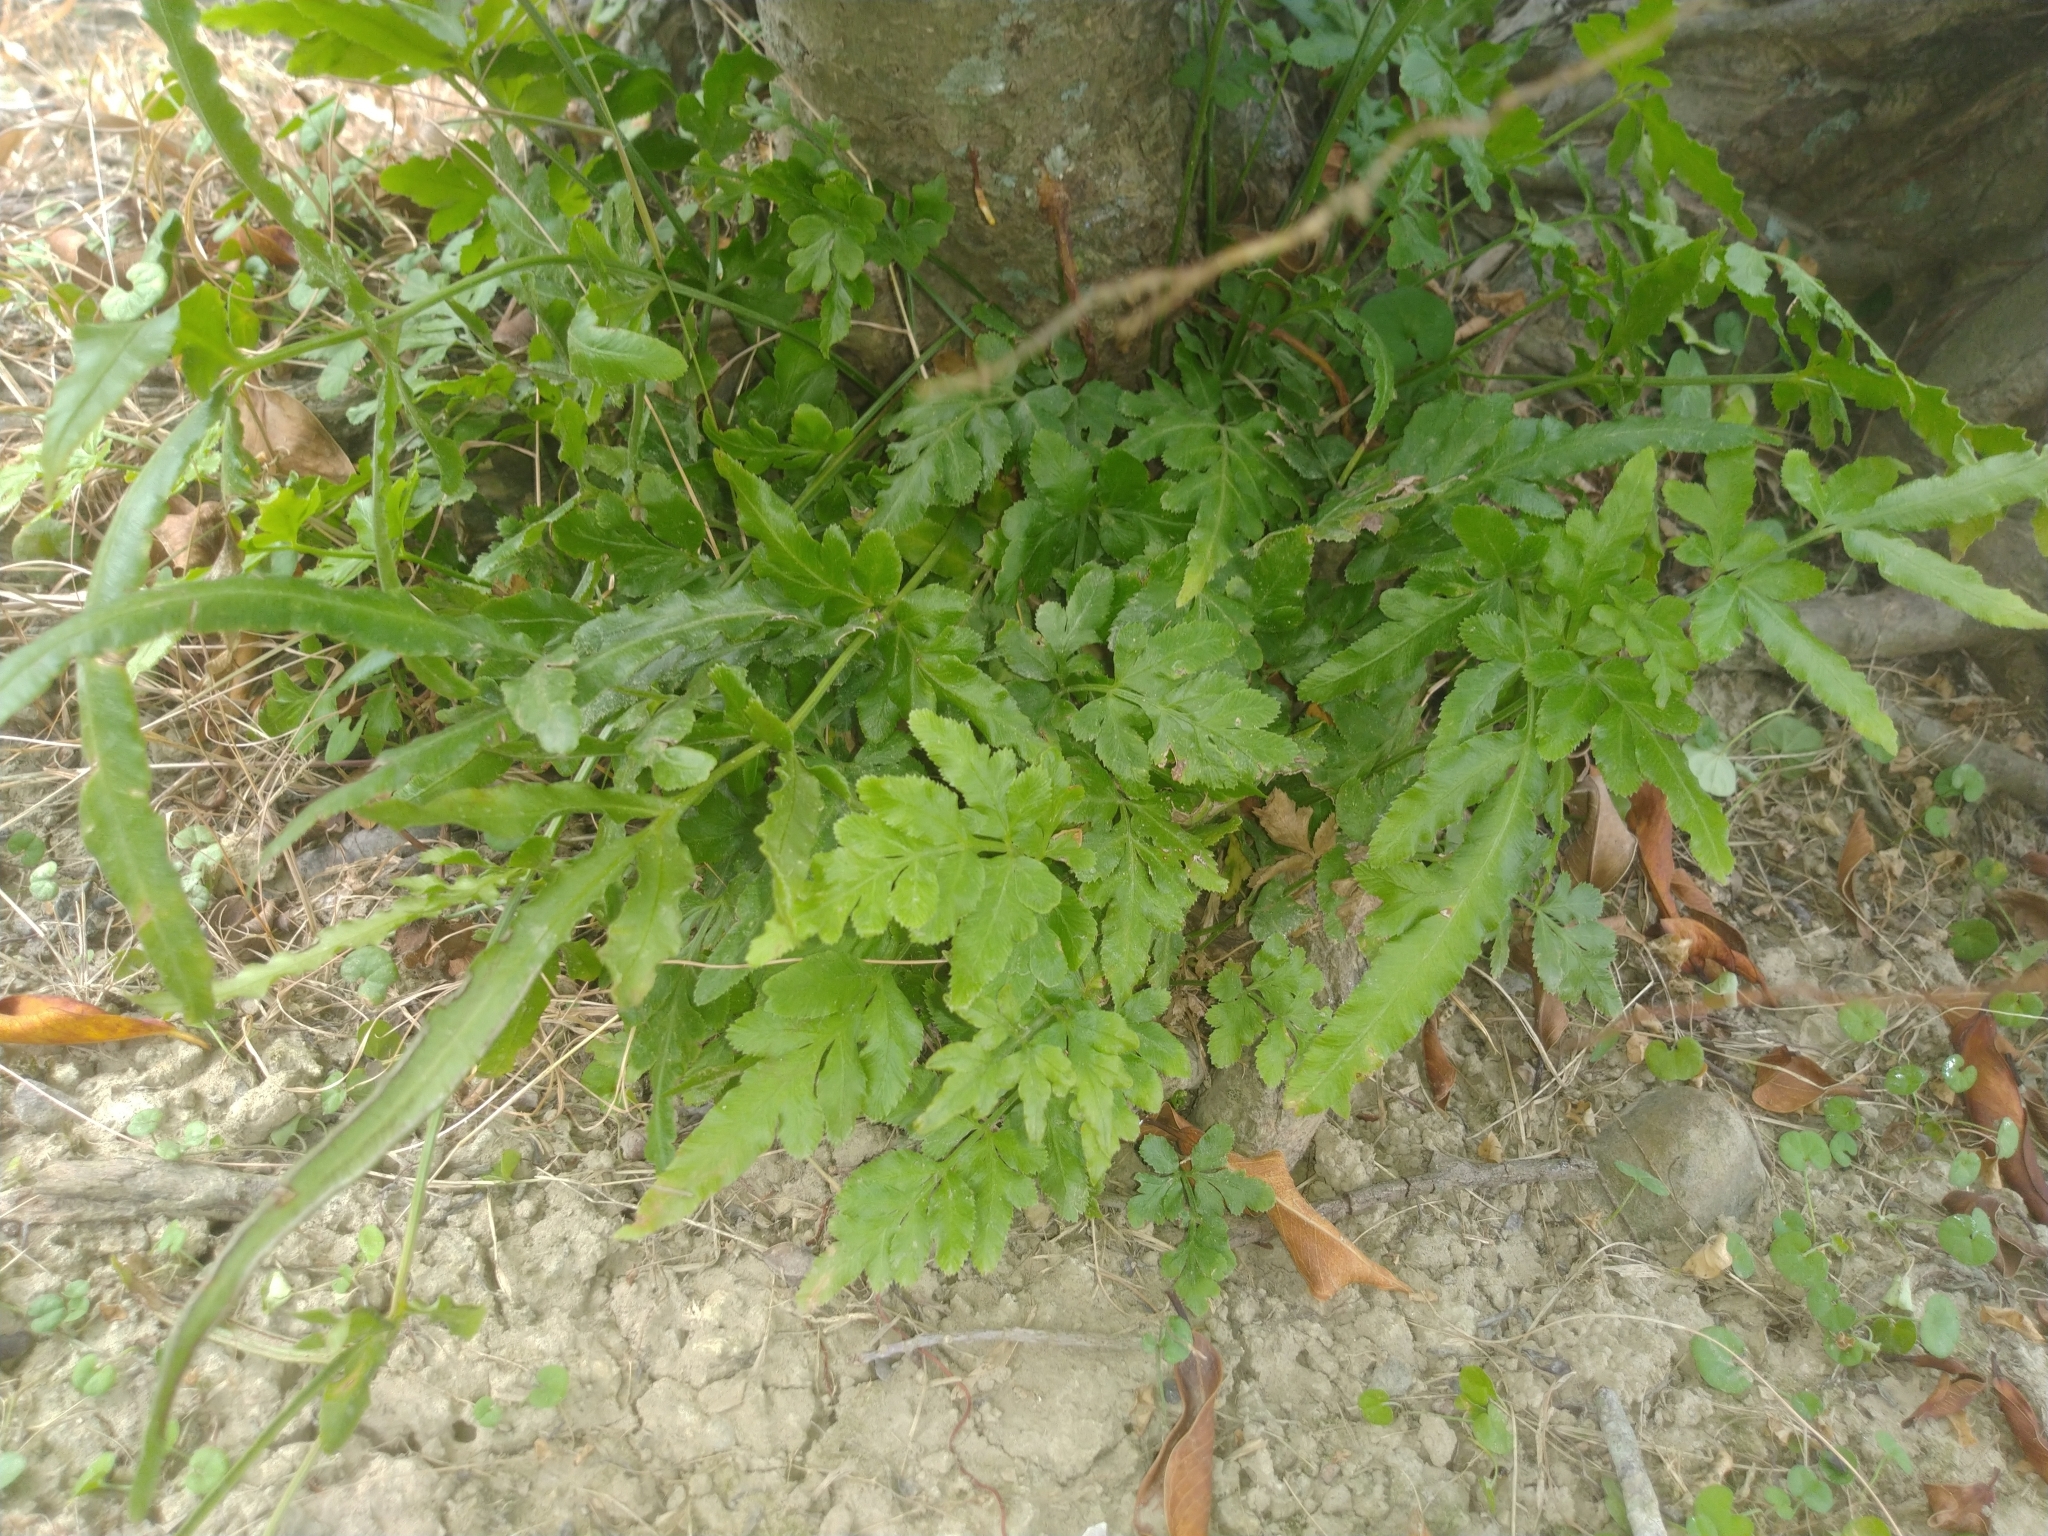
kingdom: Plantae
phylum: Tracheophyta
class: Polypodiopsida
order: Polypodiales
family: Pteridaceae
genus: Pteris
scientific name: Pteris ensiformis
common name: Sword brake
